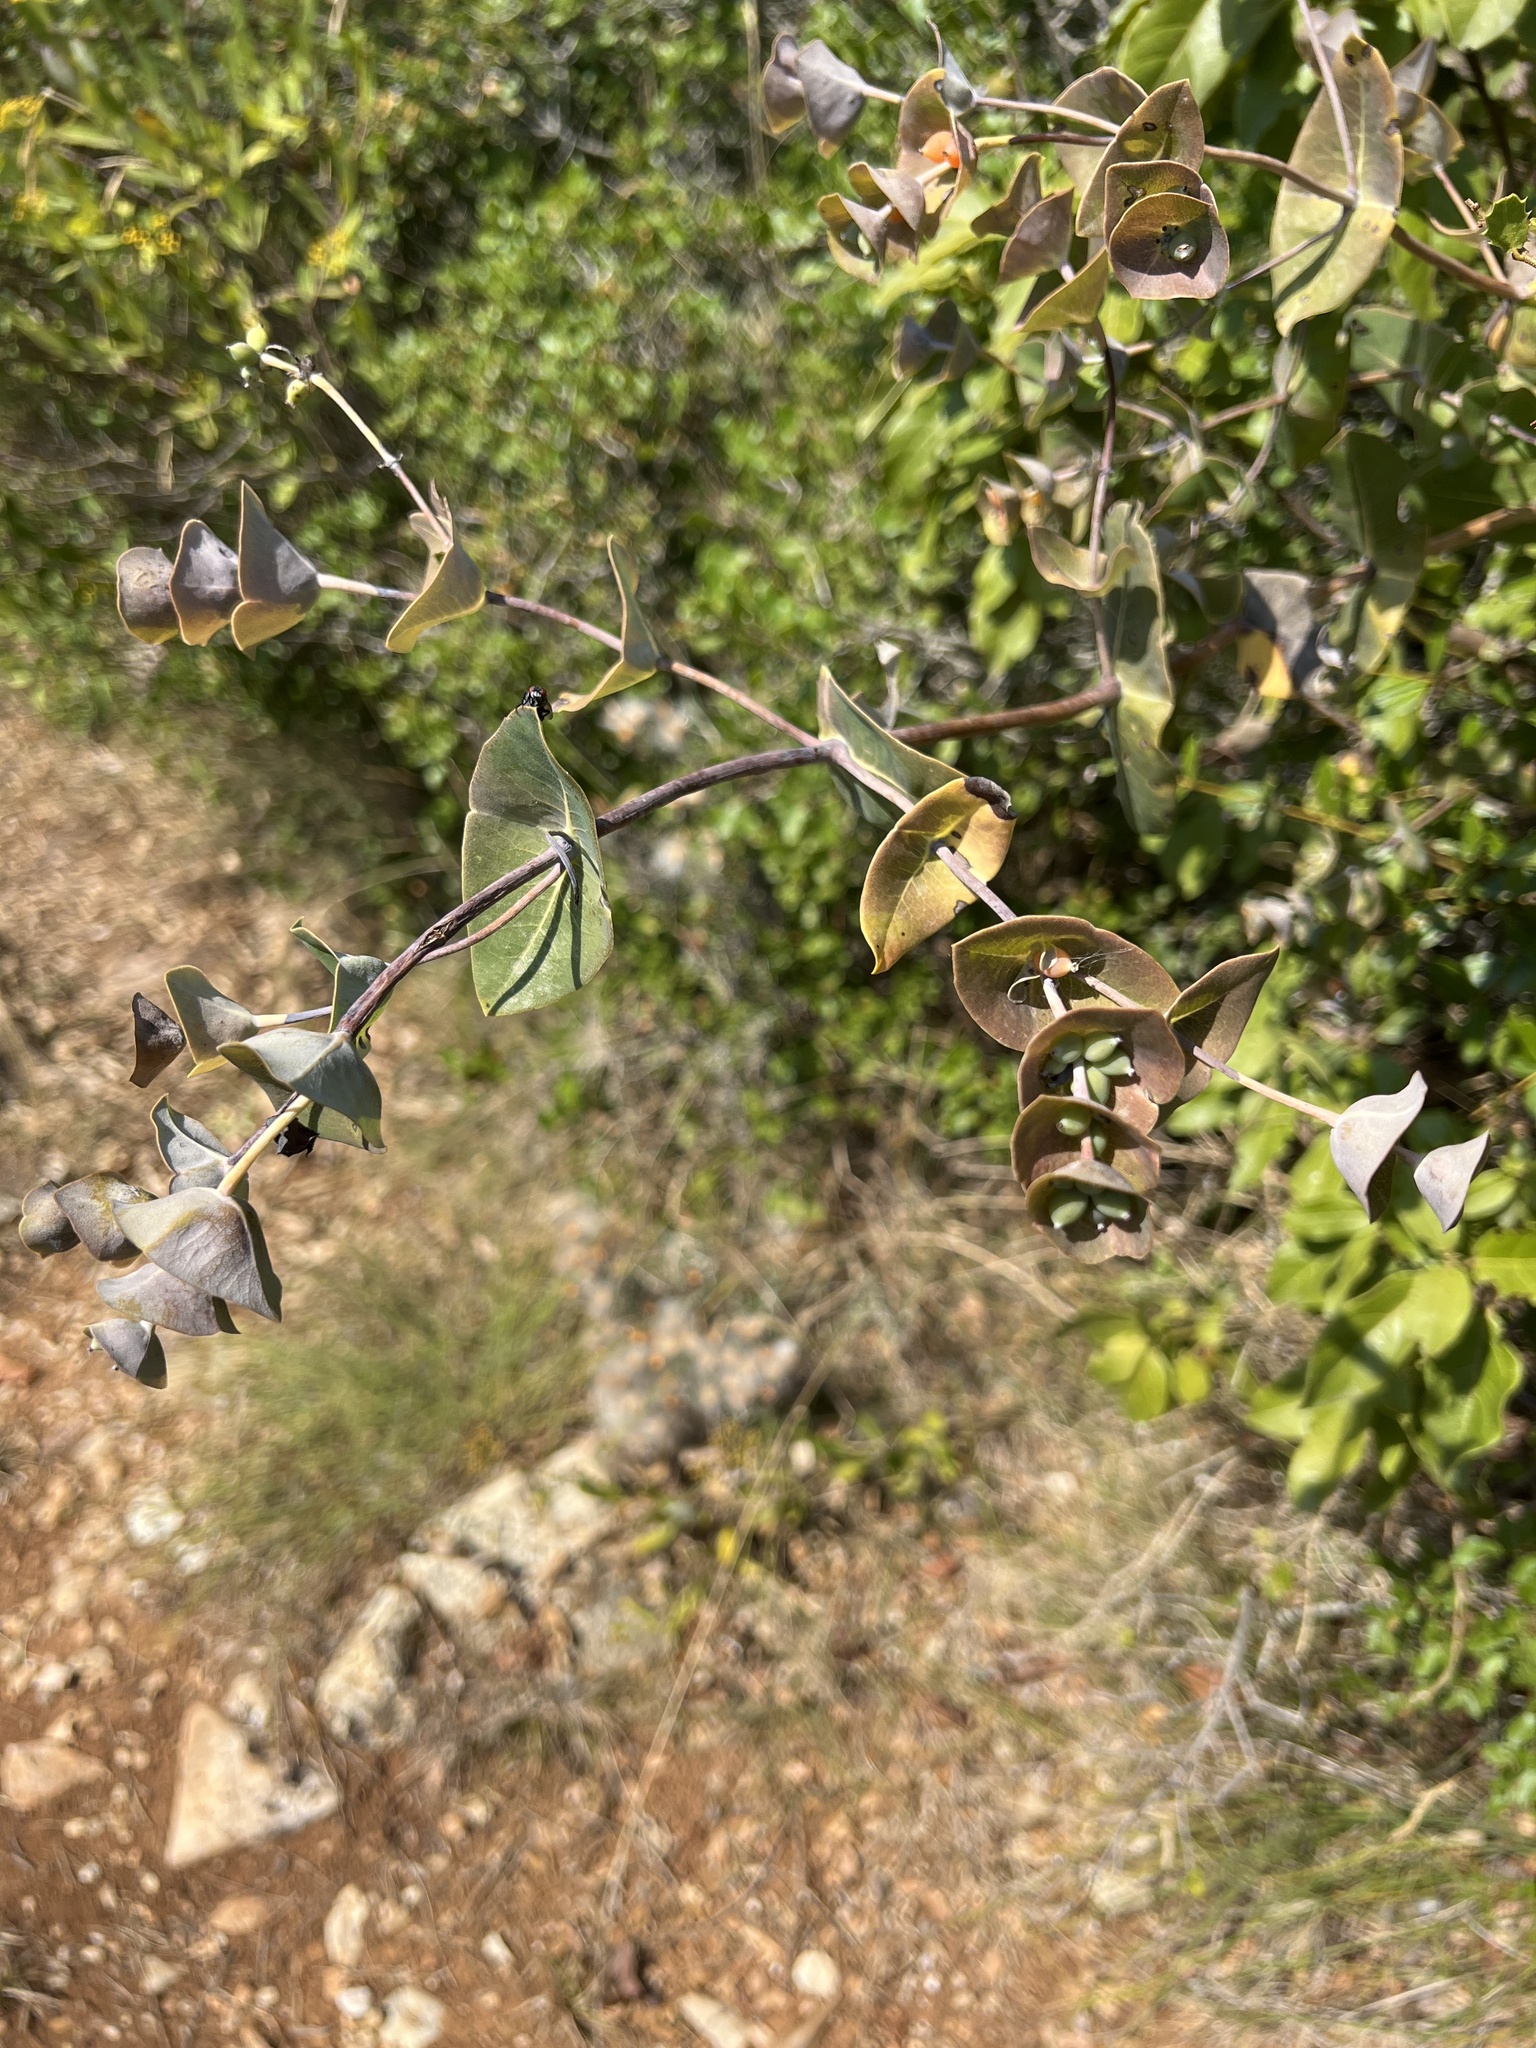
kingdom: Plantae
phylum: Tracheophyta
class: Magnoliopsida
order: Dipsacales
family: Caprifoliaceae
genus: Lonicera
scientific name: Lonicera implexa
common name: Minorca honeysuckle
